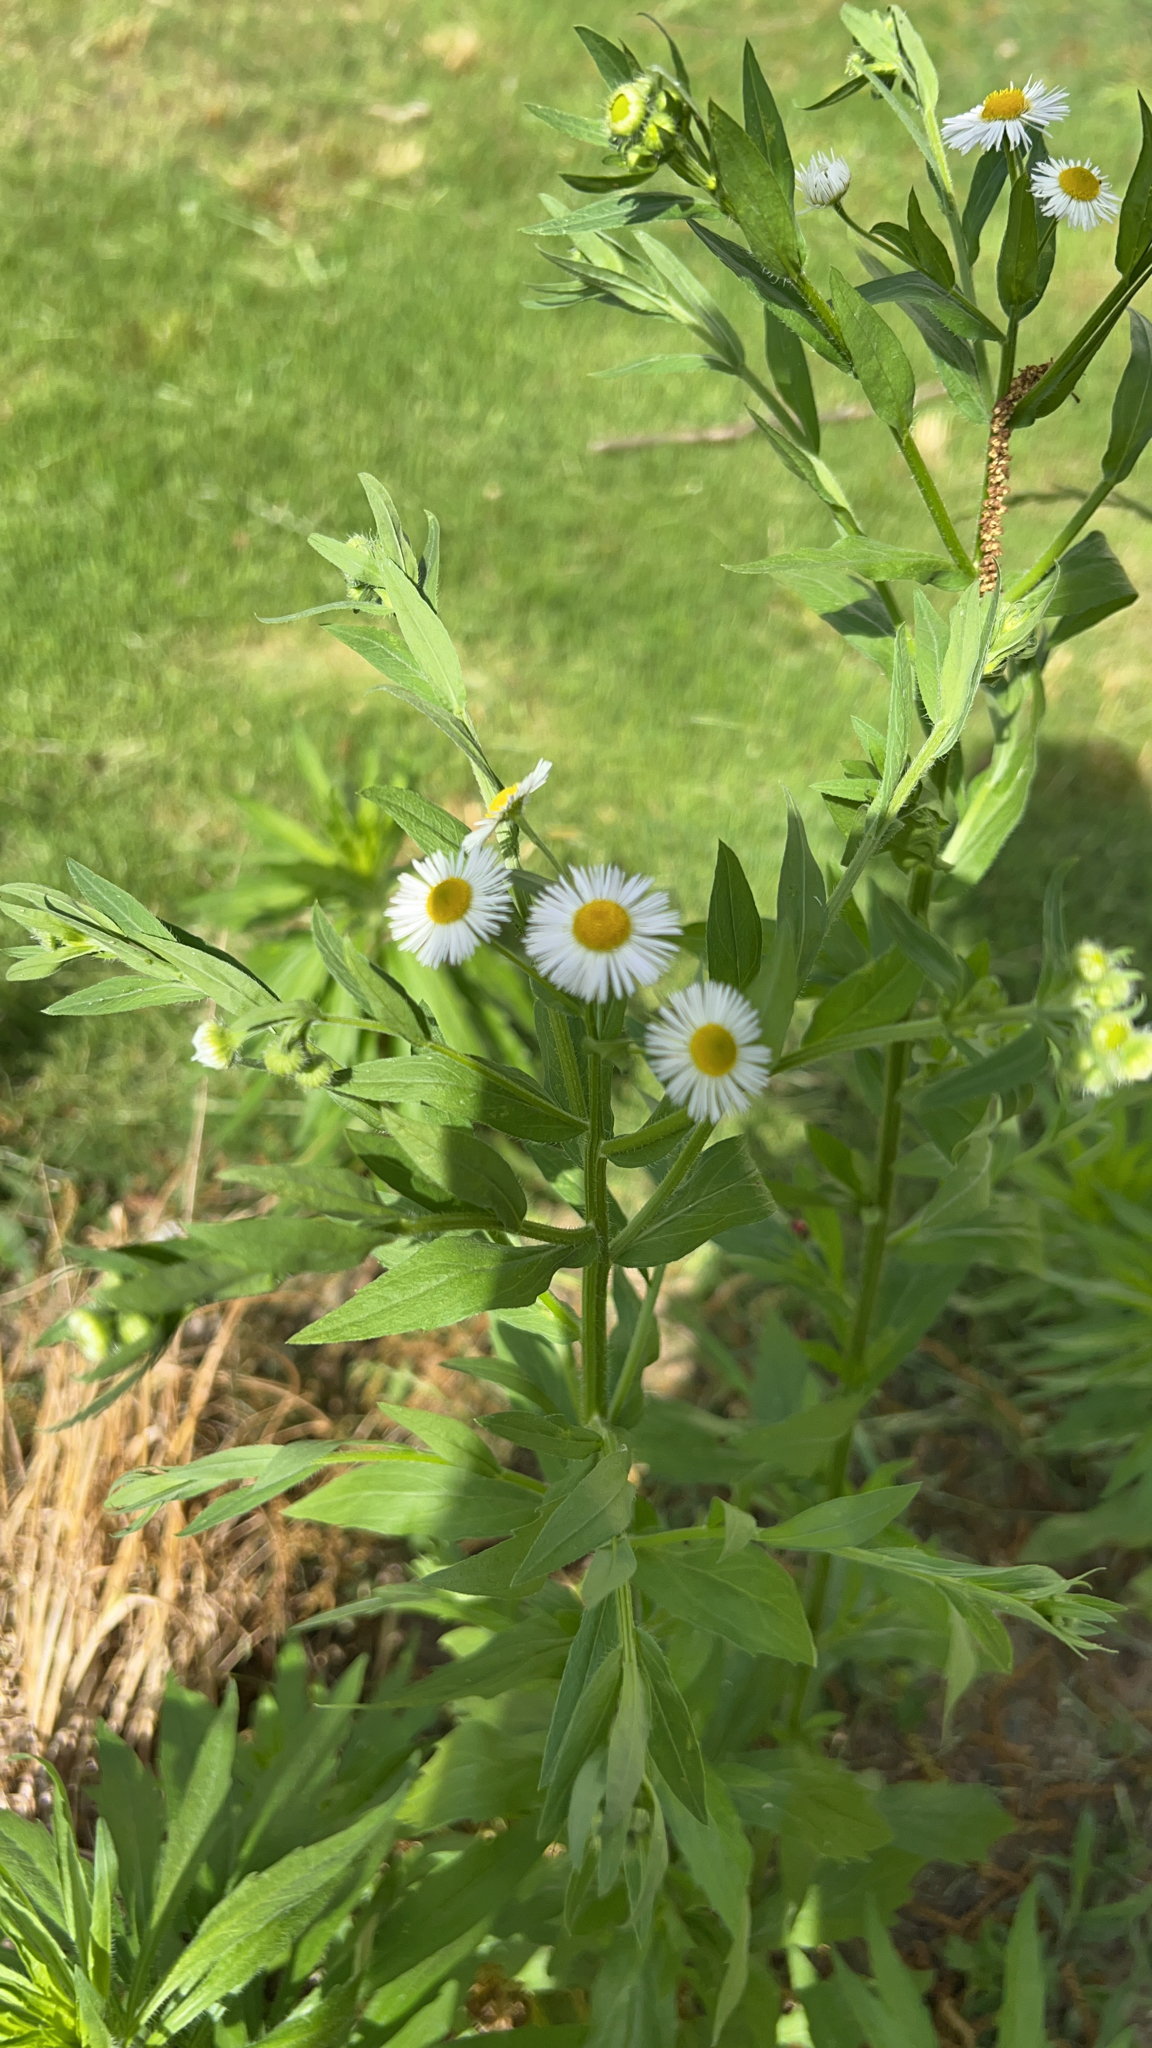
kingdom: Plantae
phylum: Tracheophyta
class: Magnoliopsida
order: Asterales
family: Asteraceae
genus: Erigeron
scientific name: Erigeron annuus
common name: Tall fleabane
